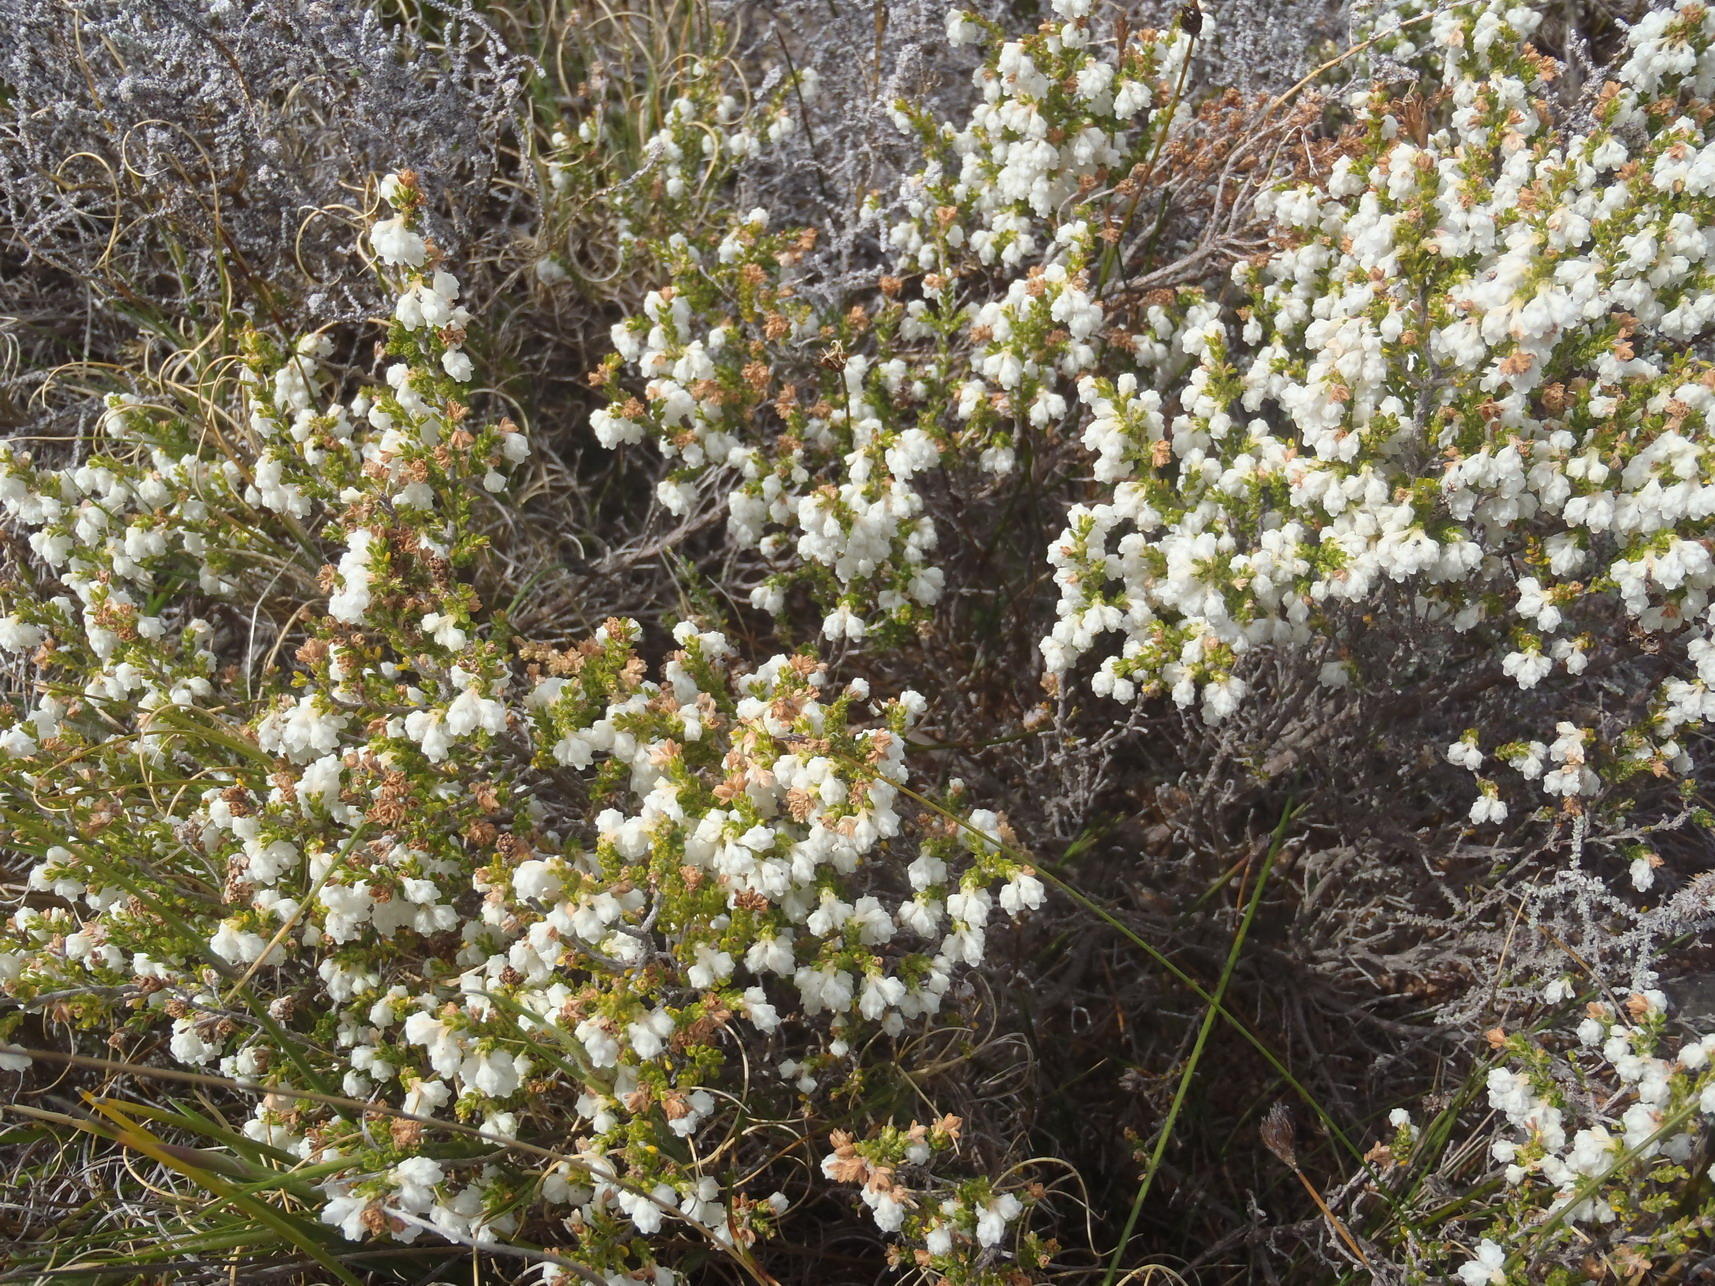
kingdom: Plantae
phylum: Tracheophyta
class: Magnoliopsida
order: Ericales
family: Ericaceae
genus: Erica
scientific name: Erica fimbriata
